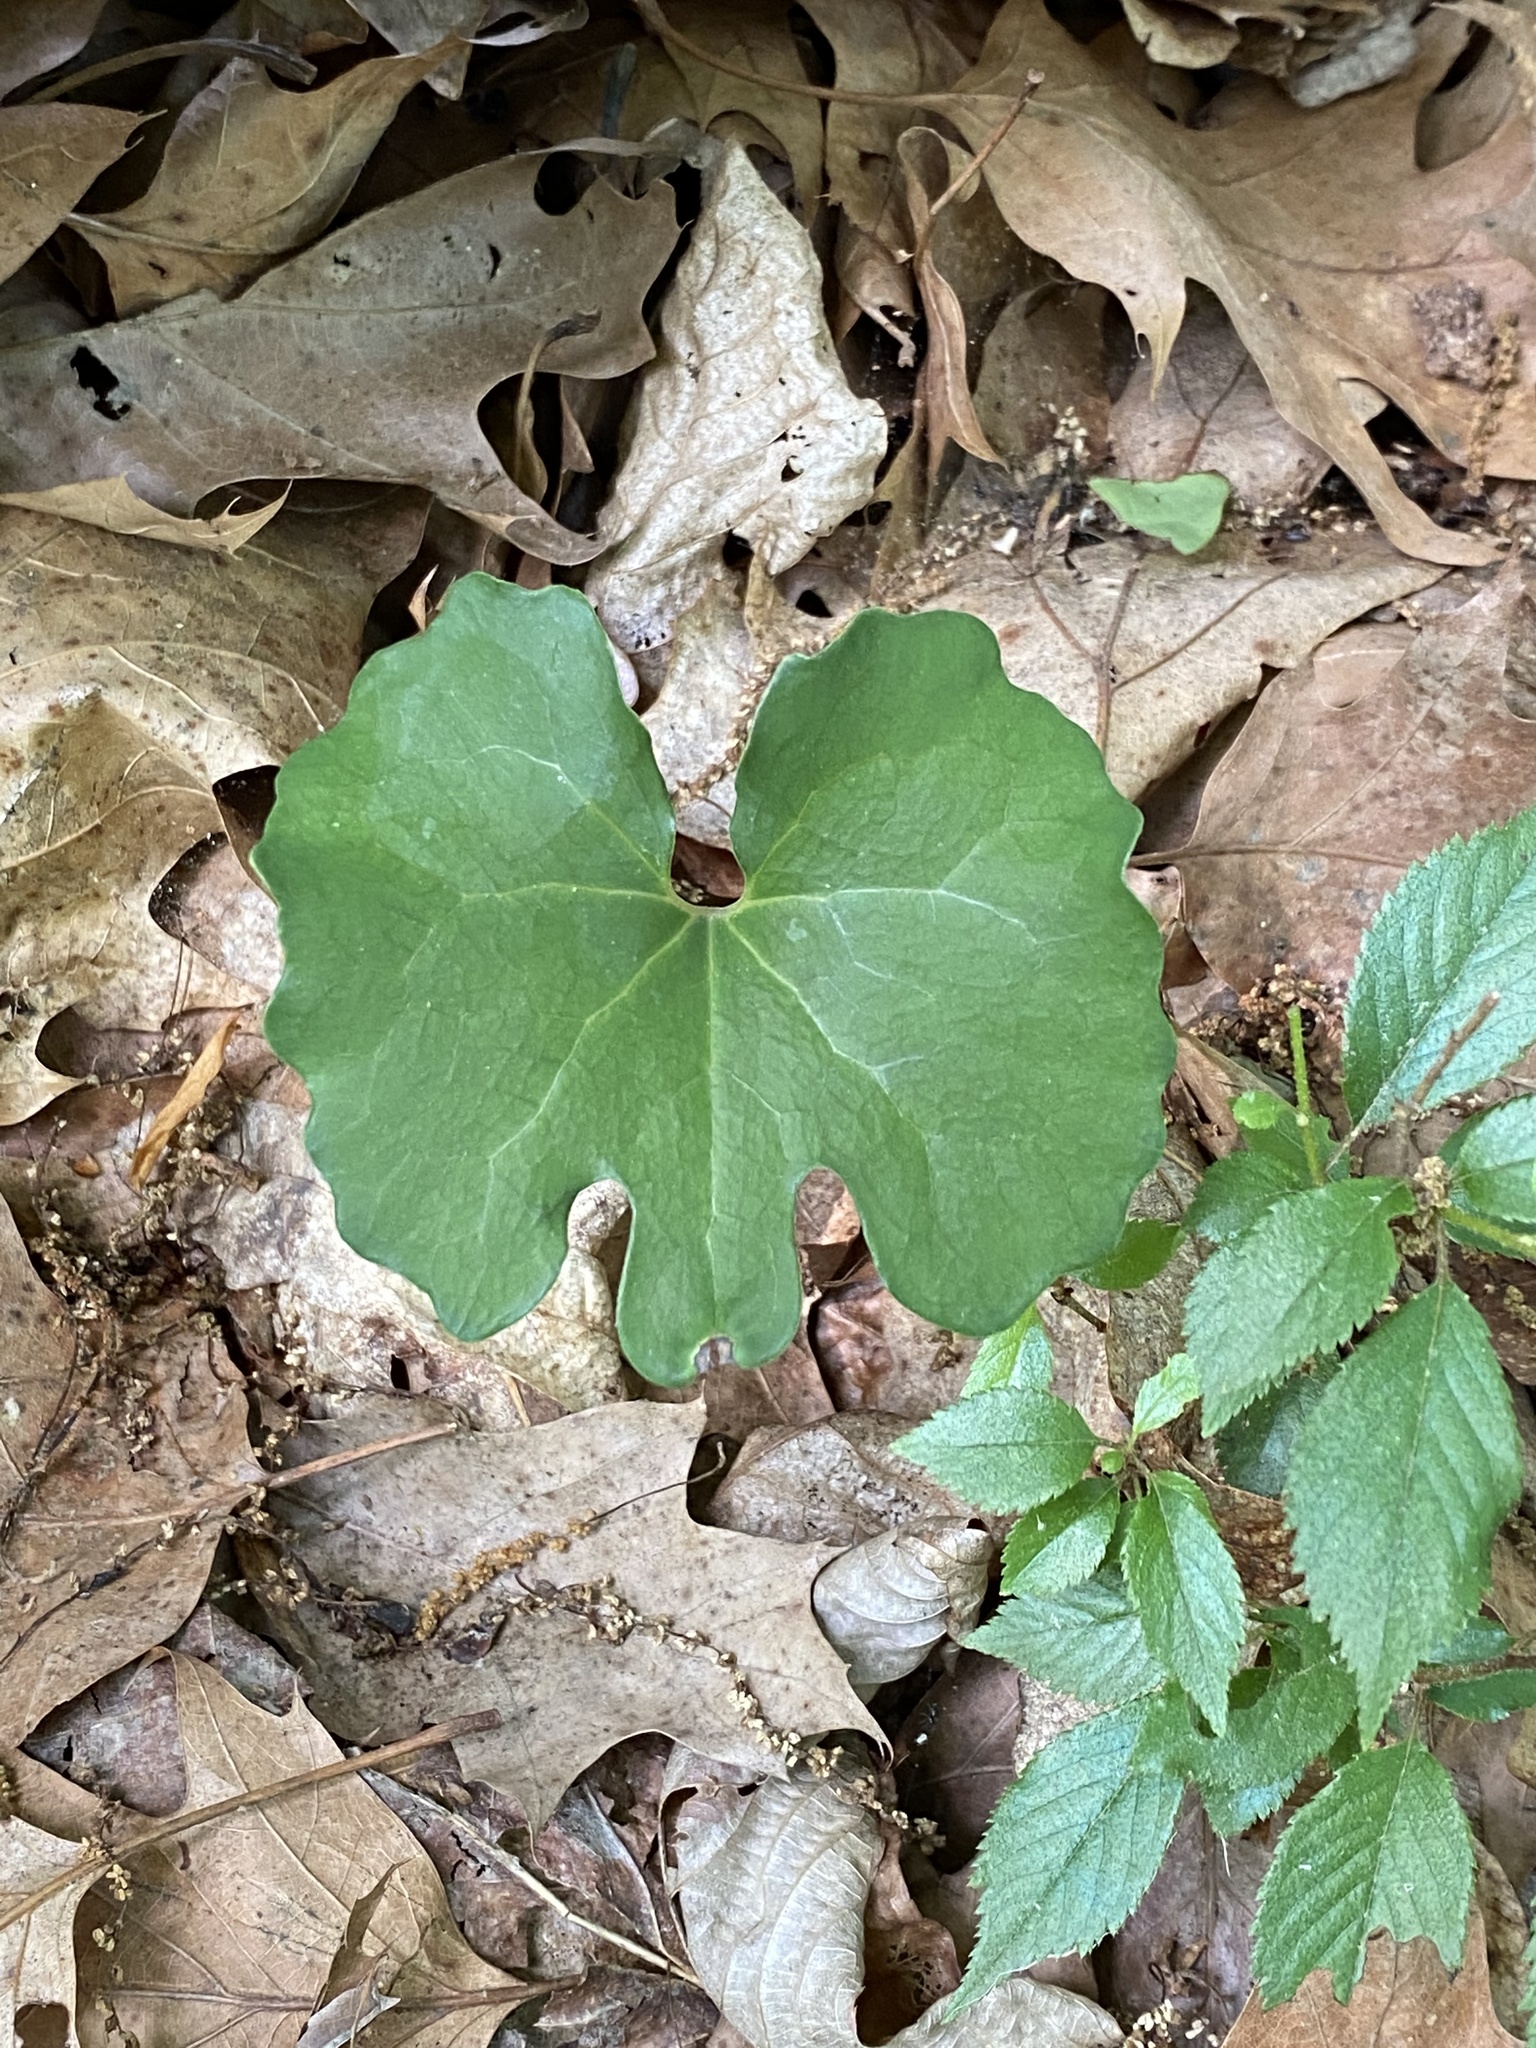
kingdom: Plantae
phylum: Tracheophyta
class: Magnoliopsida
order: Ranunculales
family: Papaveraceae
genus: Sanguinaria
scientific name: Sanguinaria canadensis
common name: Bloodroot
